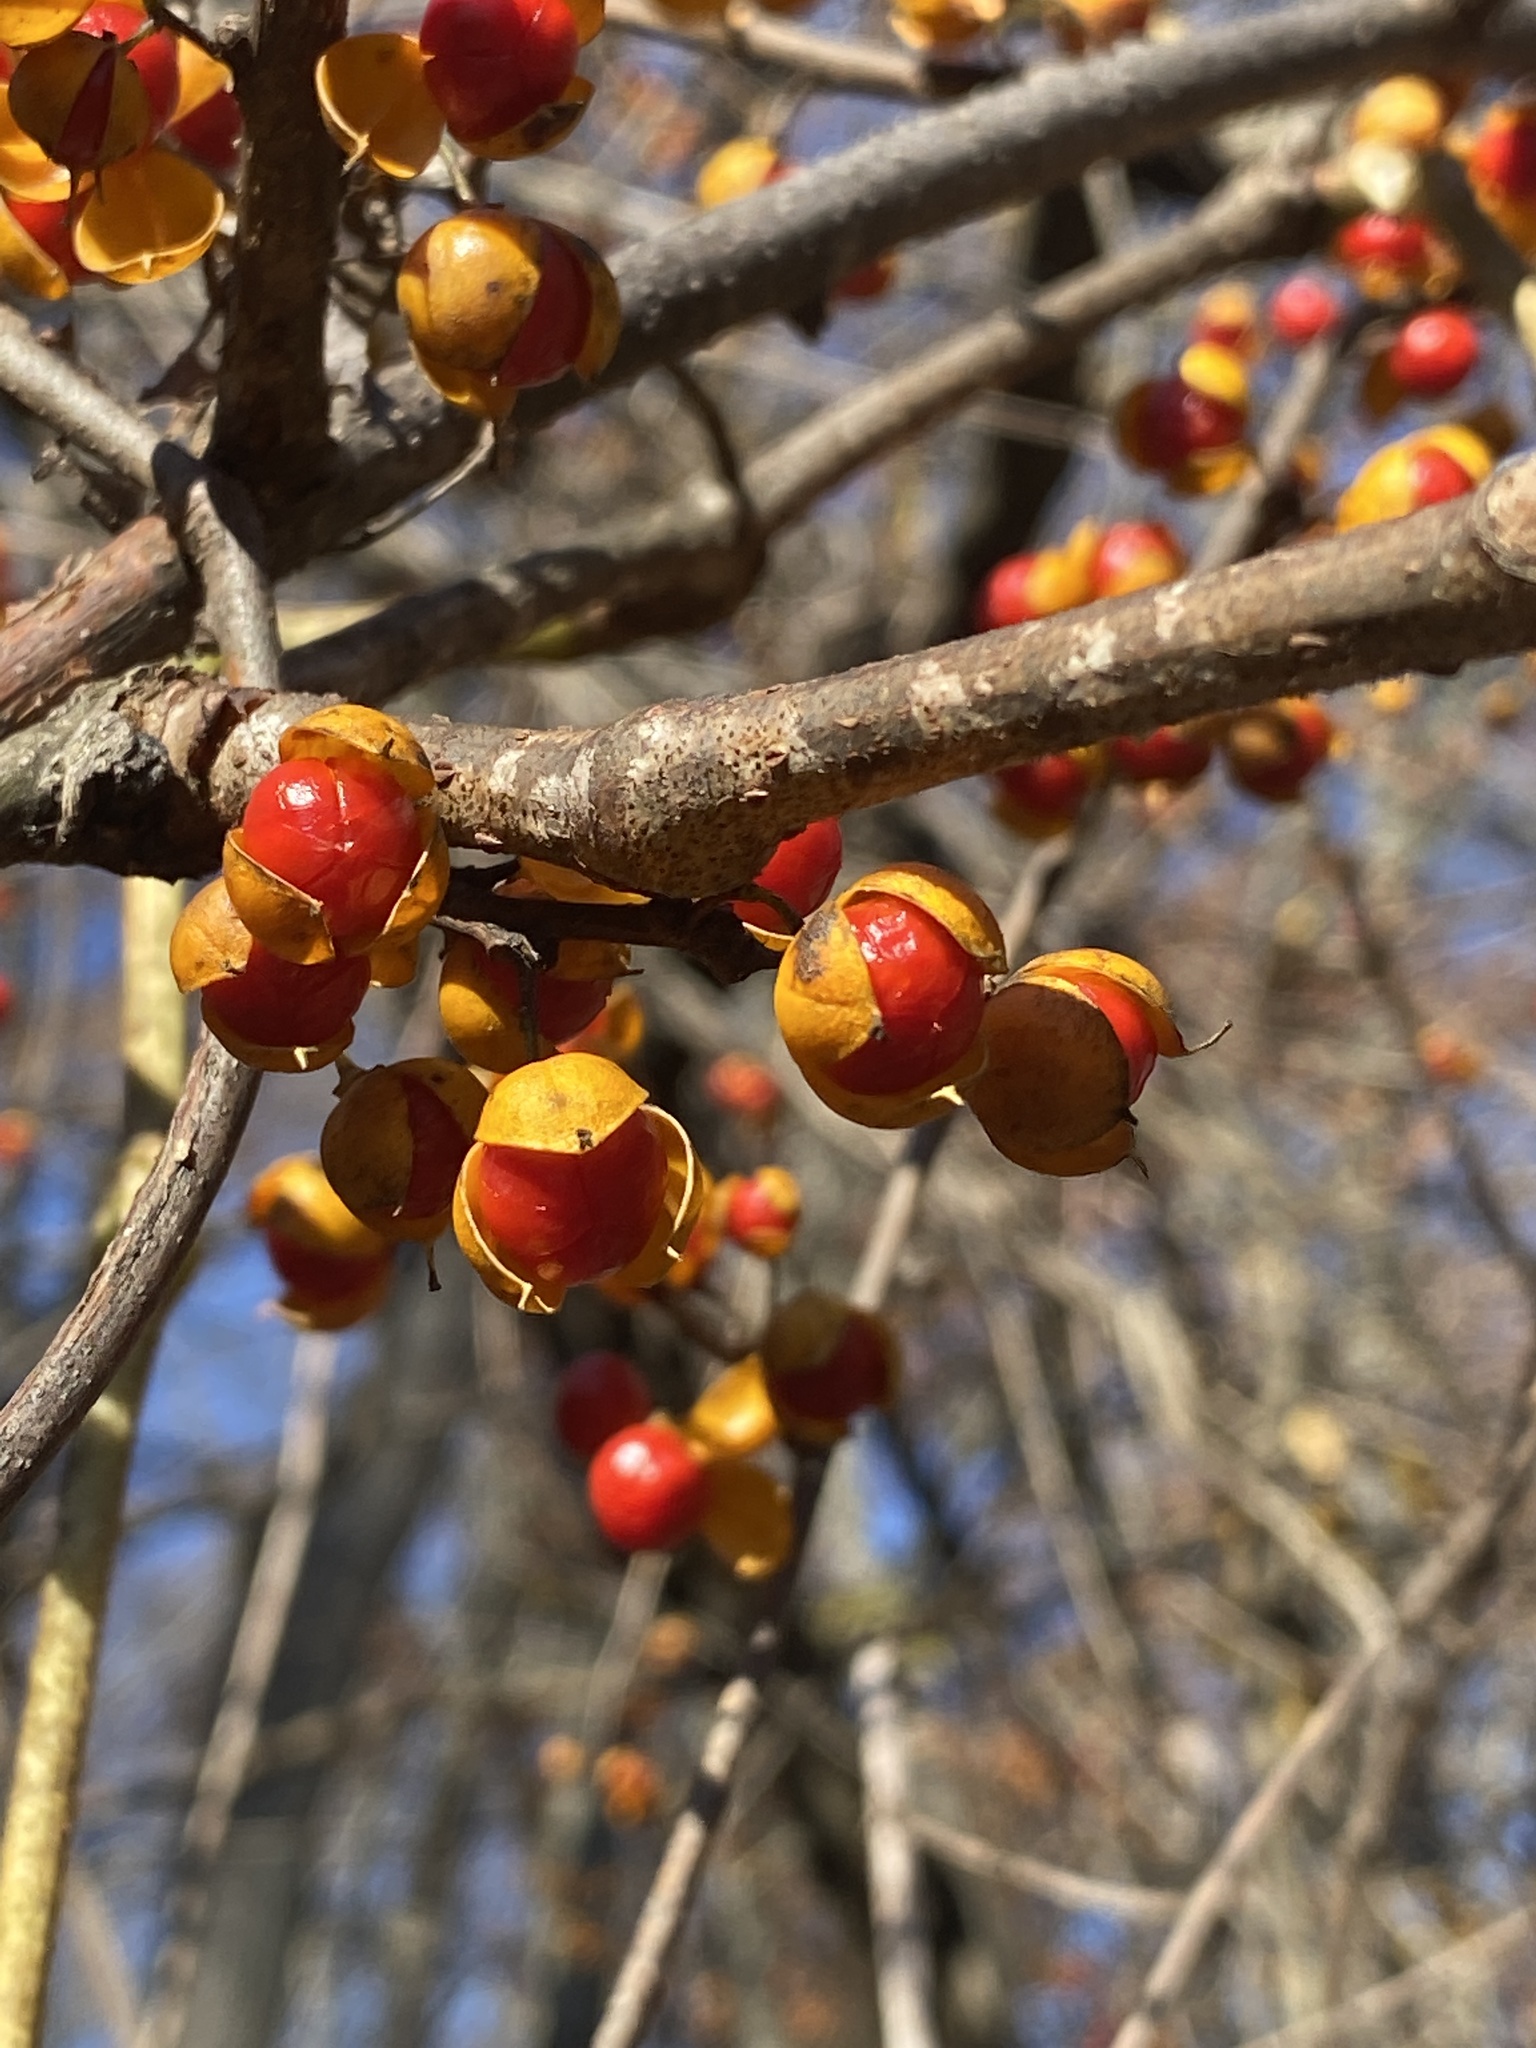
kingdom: Plantae
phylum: Tracheophyta
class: Magnoliopsida
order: Celastrales
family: Celastraceae
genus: Celastrus
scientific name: Celastrus orbiculatus
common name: Oriental bittersweet
